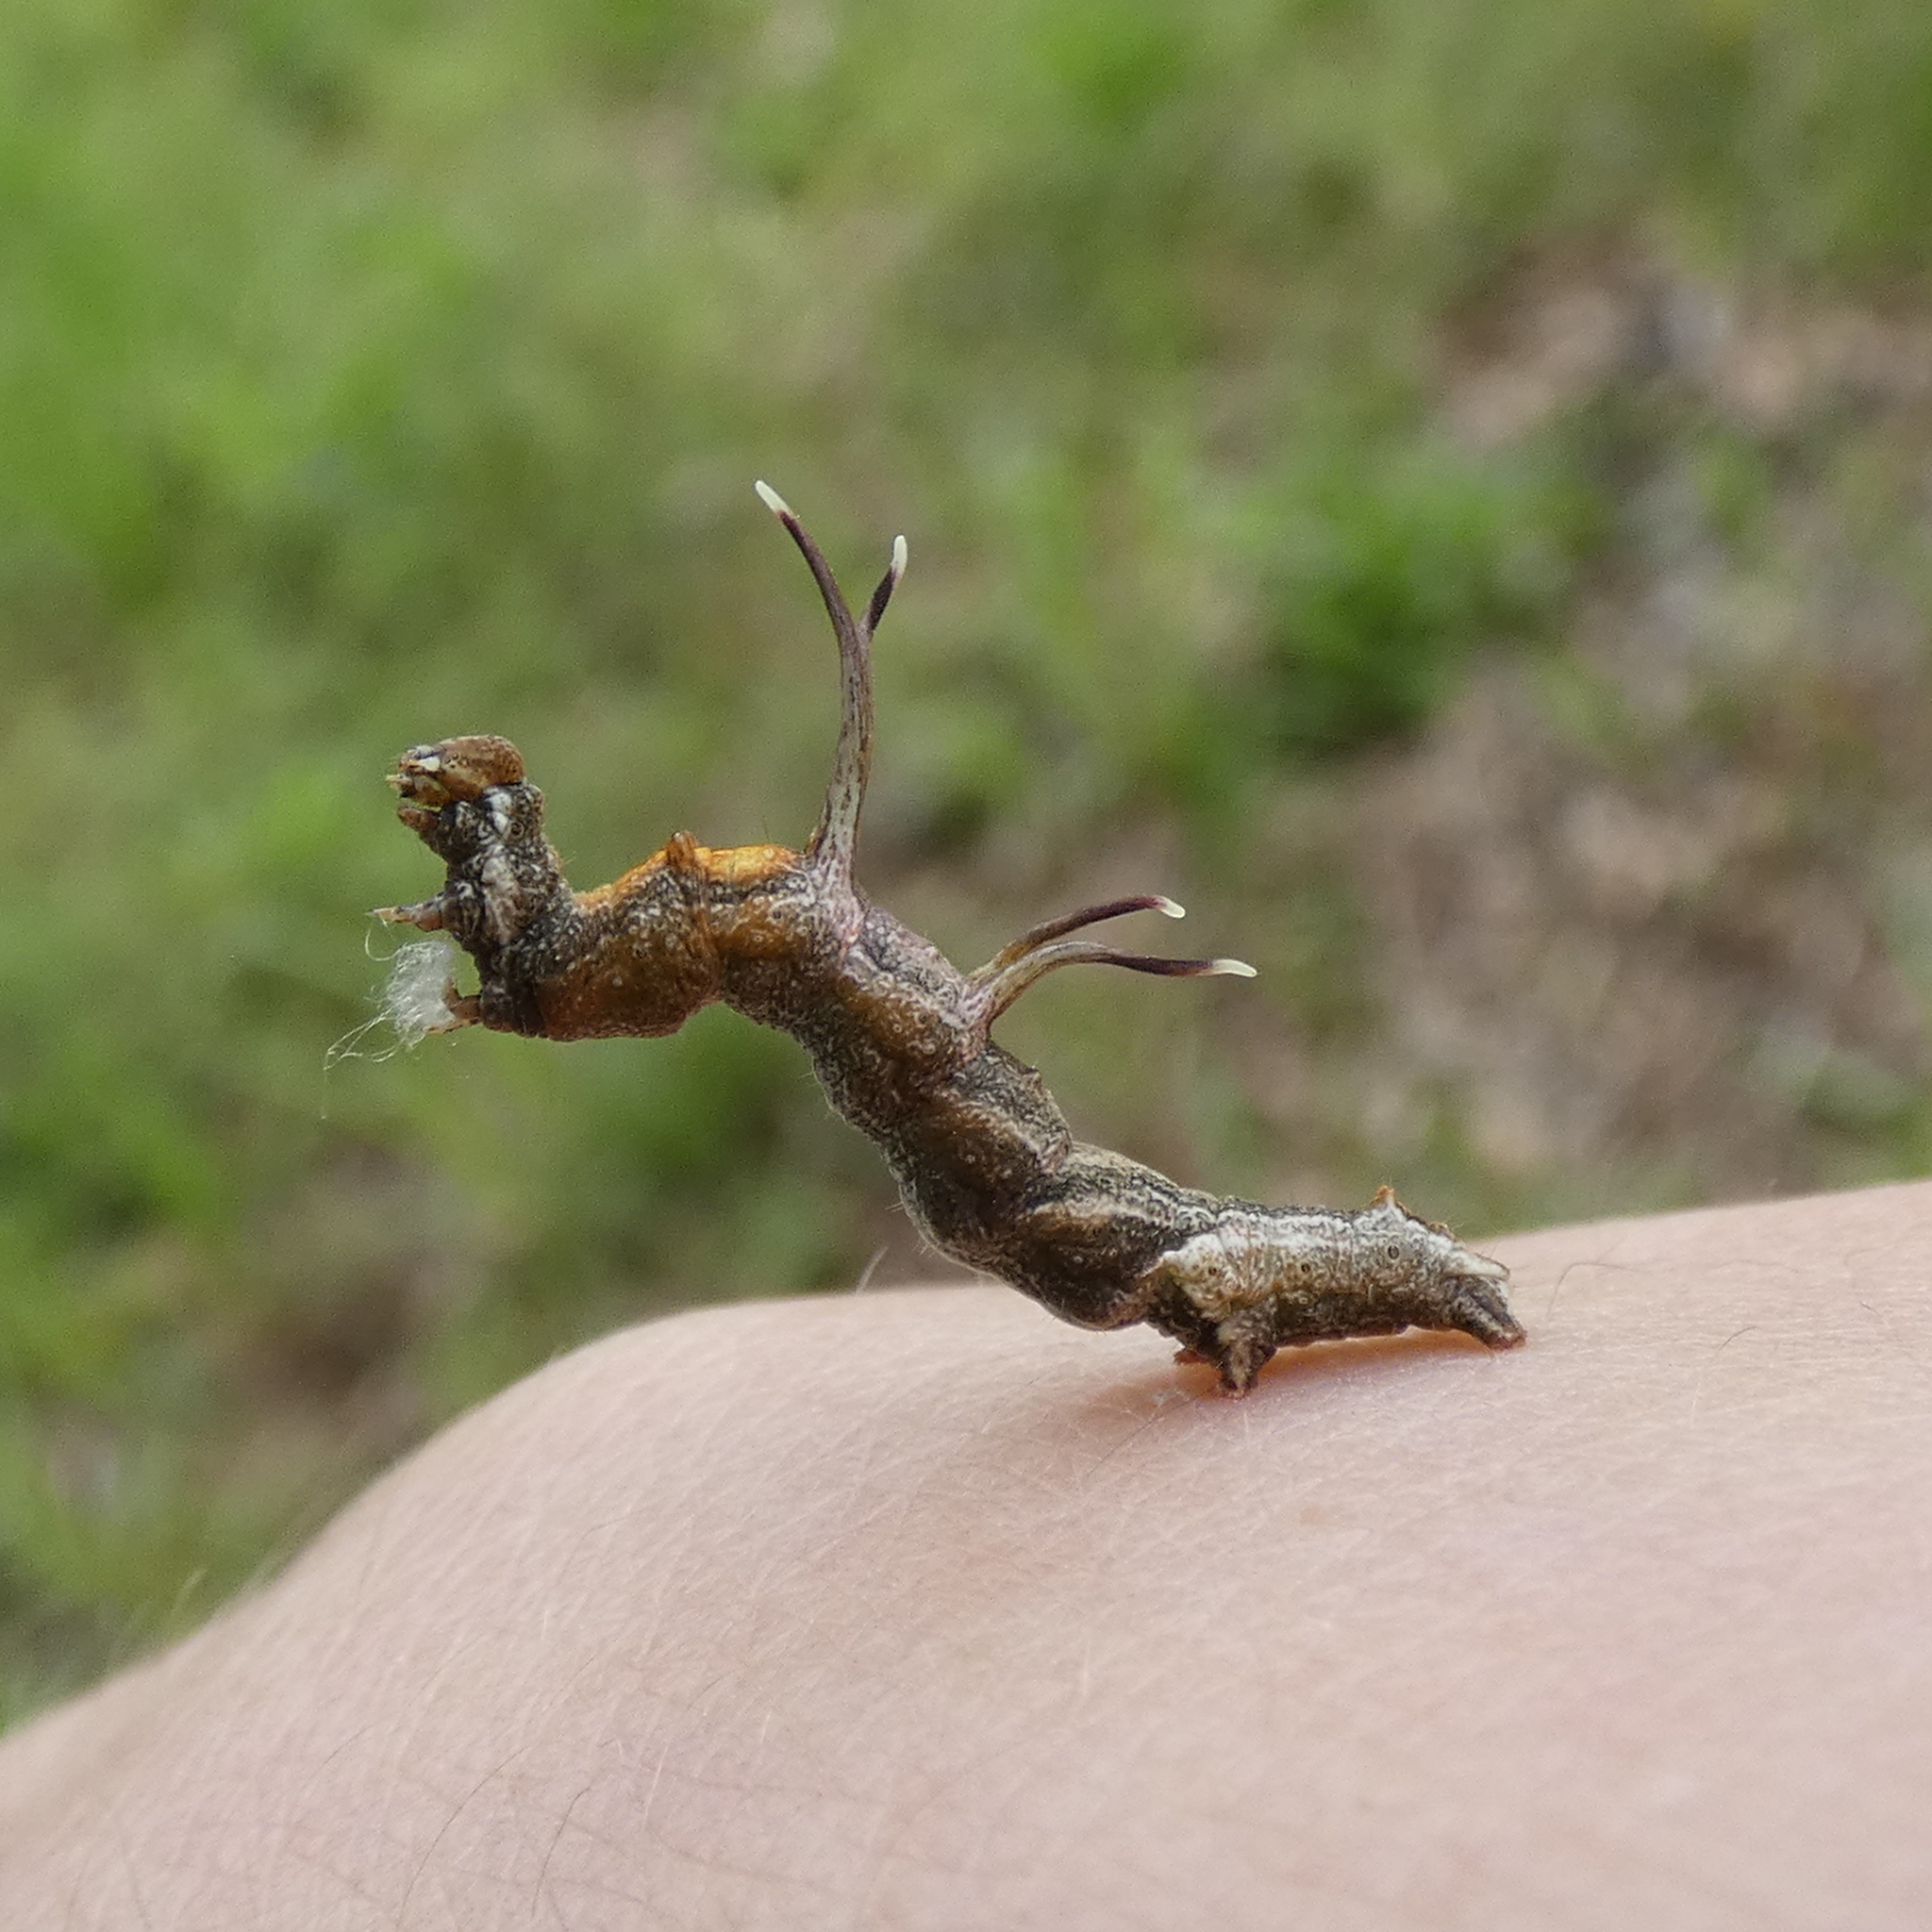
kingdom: Animalia
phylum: Arthropoda
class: Insecta
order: Lepidoptera
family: Geometridae
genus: Nematocampa
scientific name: Nematocampa resistaria
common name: Horned spanworm moth
